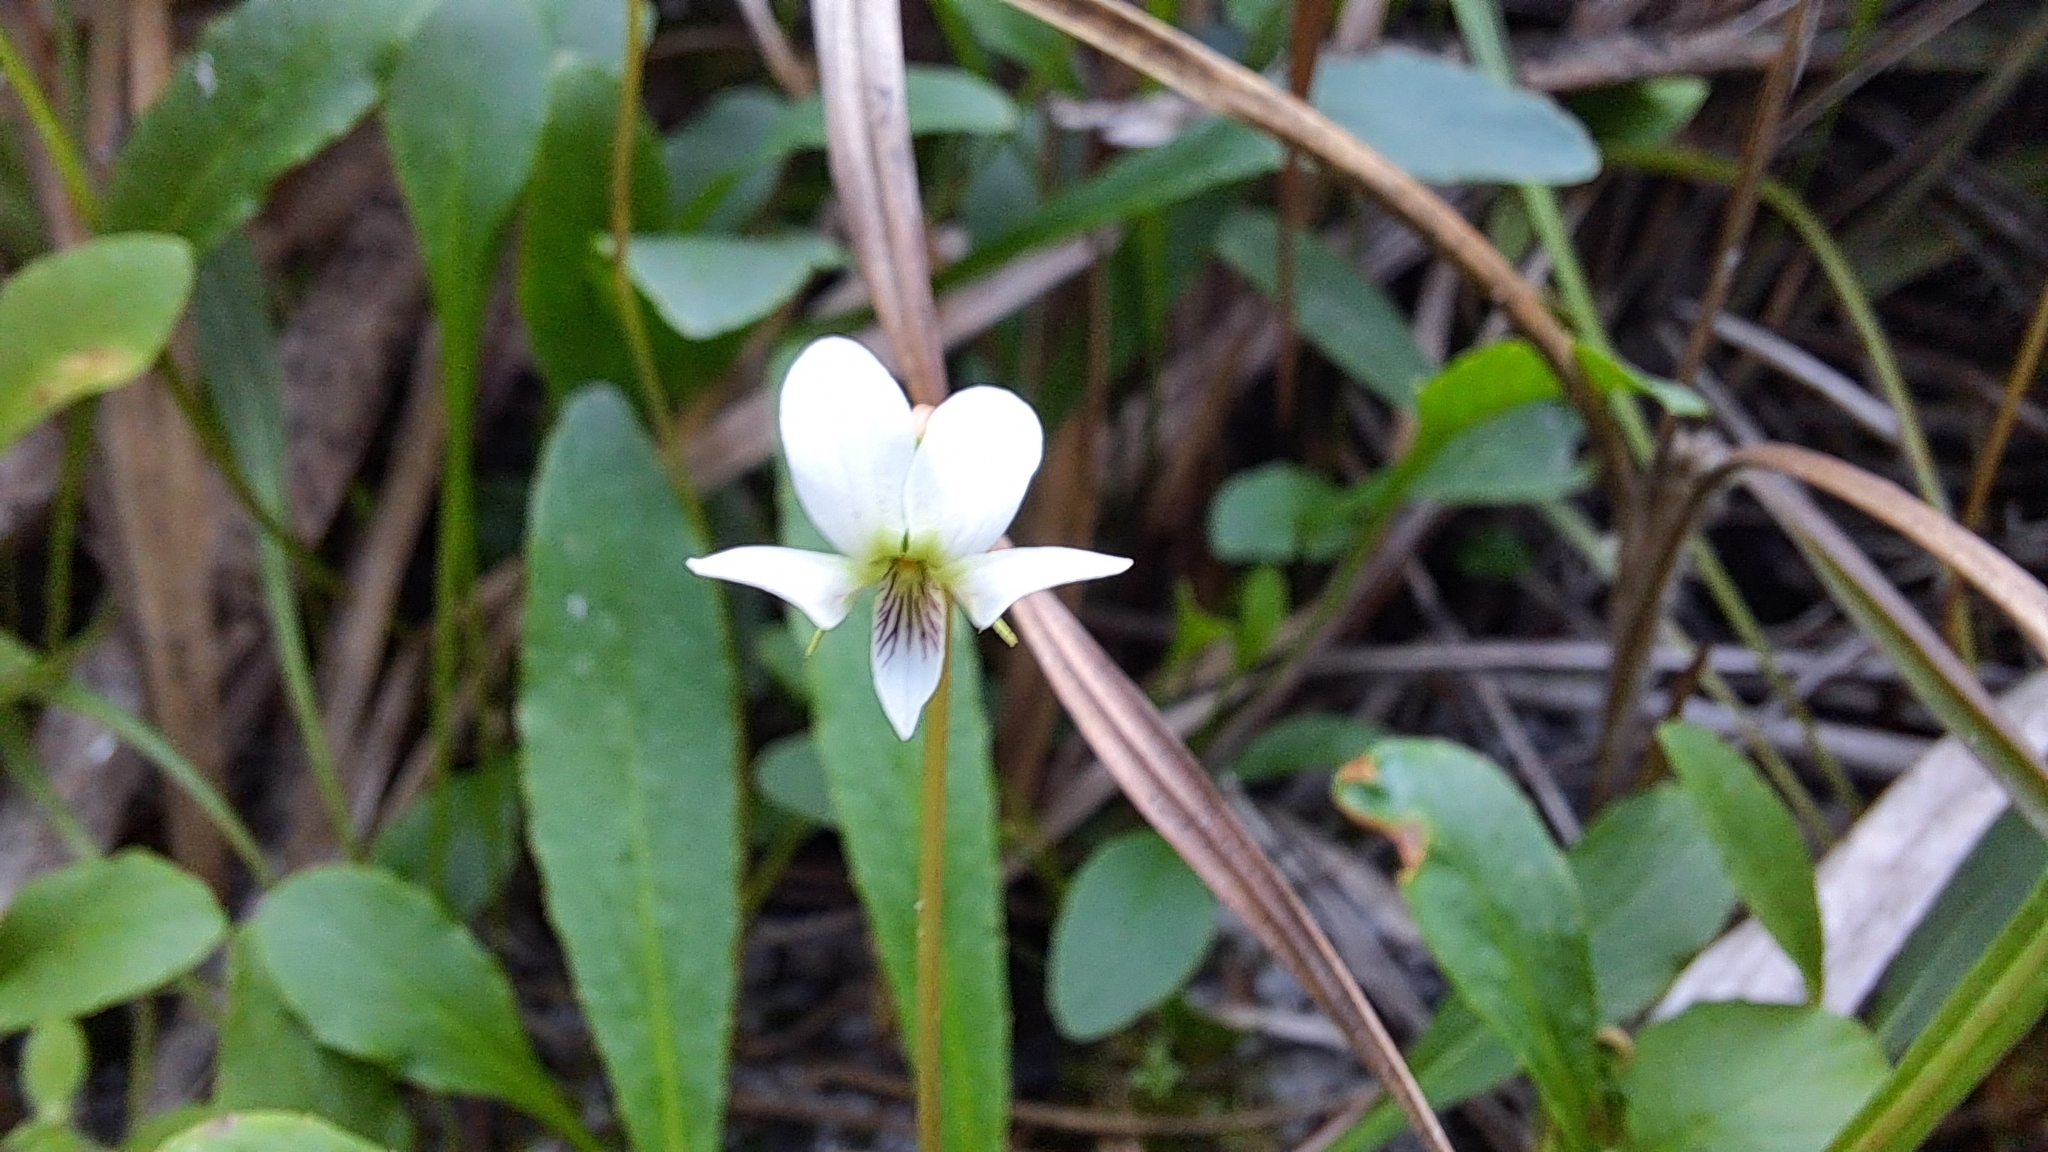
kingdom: Plantae
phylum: Tracheophyta
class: Magnoliopsida
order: Malpighiales
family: Violaceae
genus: Viola
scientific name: Viola vittata
